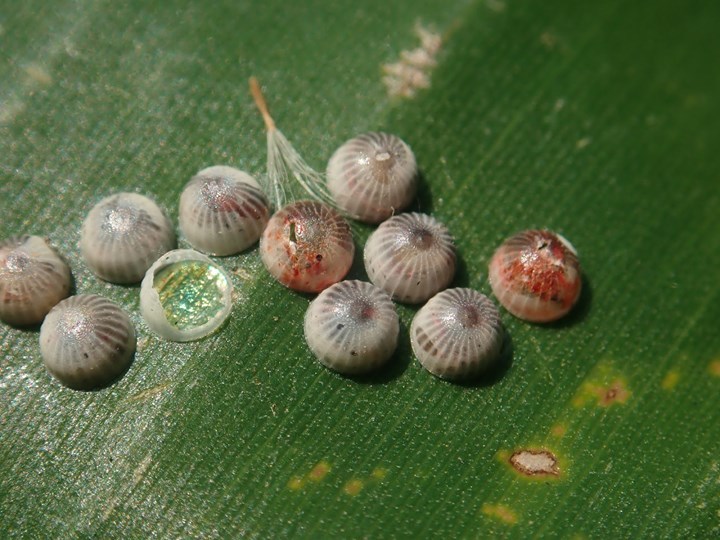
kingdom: Animalia
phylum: Arthropoda
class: Insecta
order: Lepidoptera
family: Hesperiidae
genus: Erionota
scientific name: Erionota torus
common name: Rounded palm-redeye
